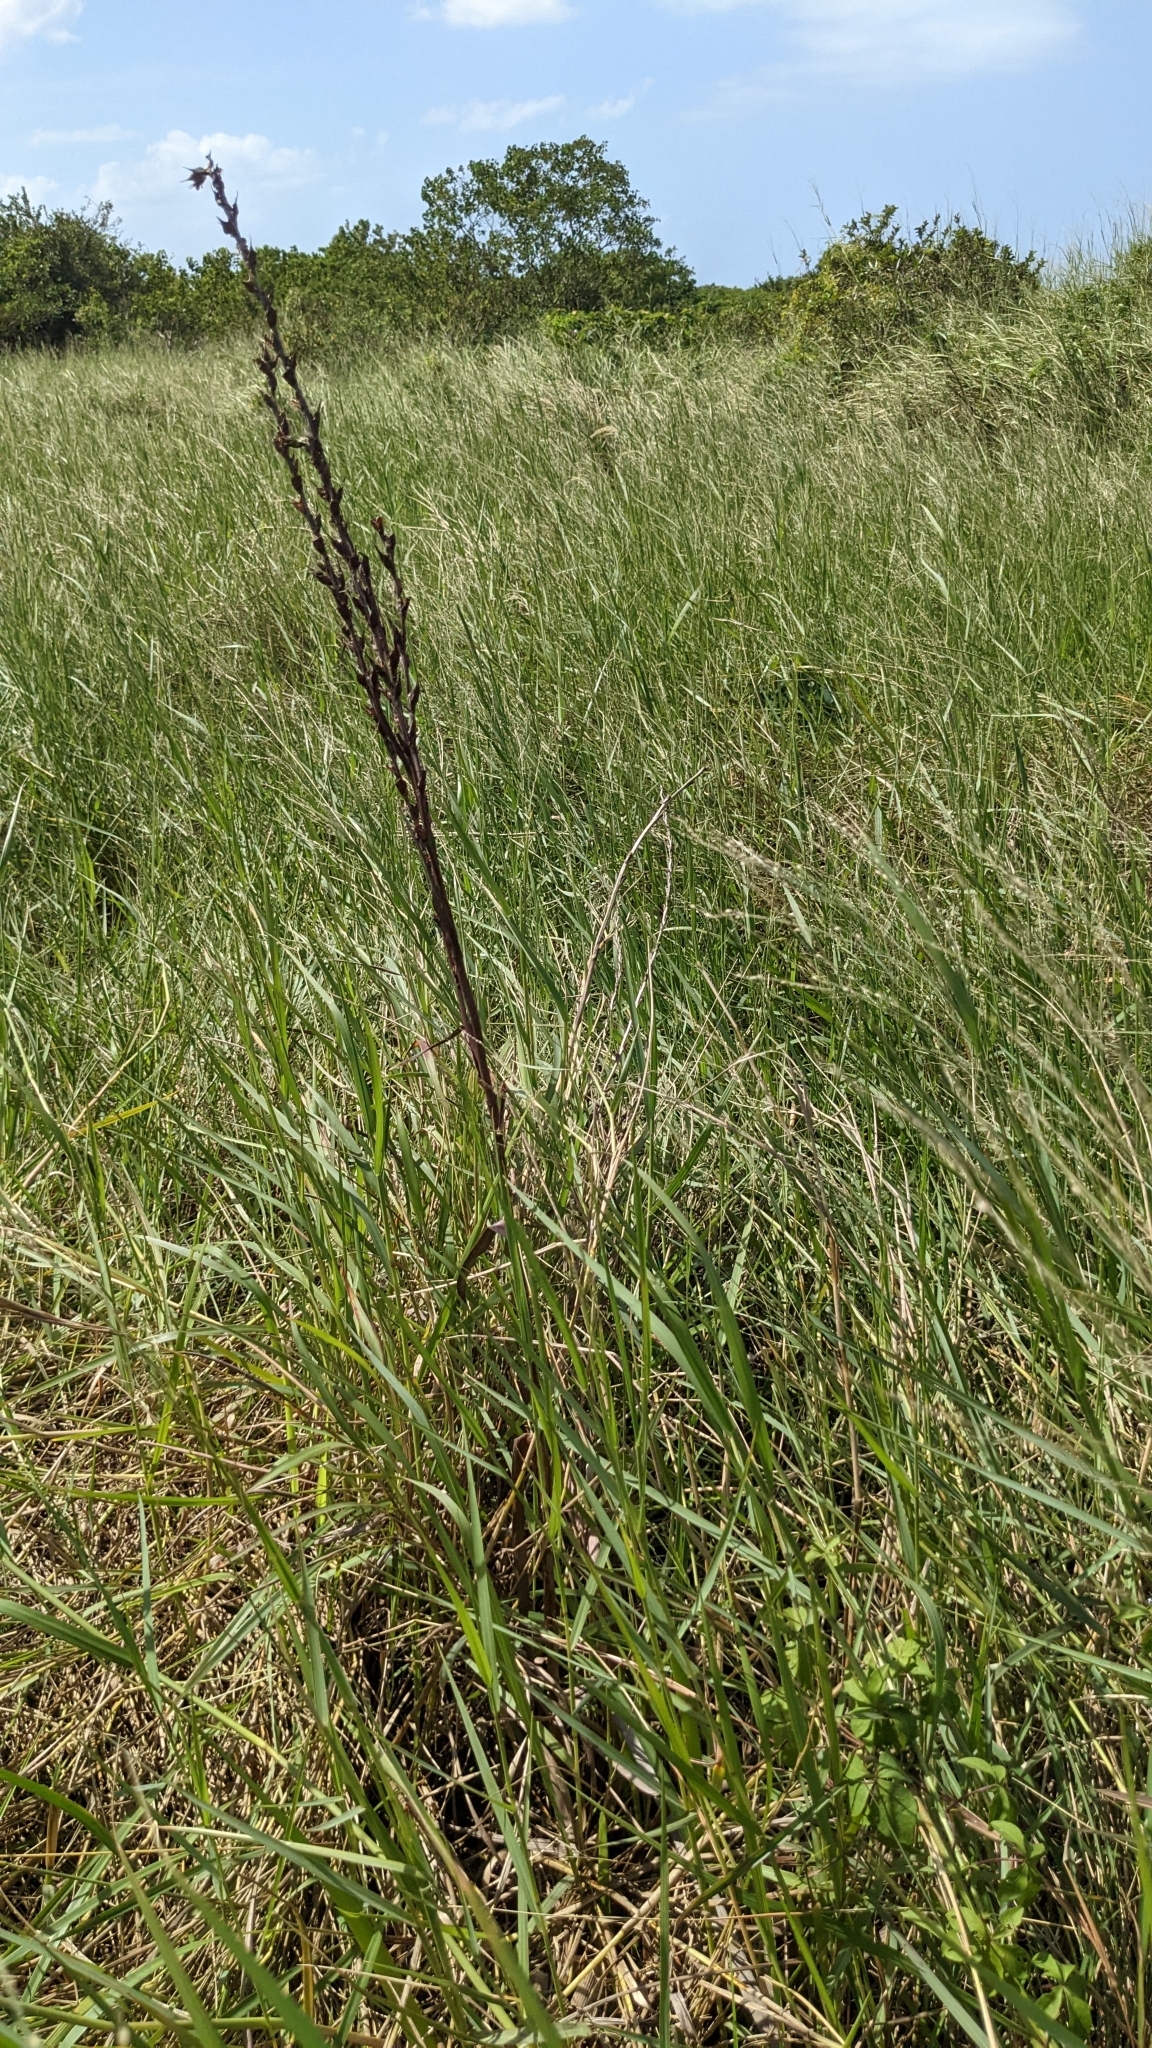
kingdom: Plantae
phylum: Tracheophyta
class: Liliopsida
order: Commelinales
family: Philydraceae
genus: Philydrum
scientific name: Philydrum lanuginosum
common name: Woolly frog's mouth
